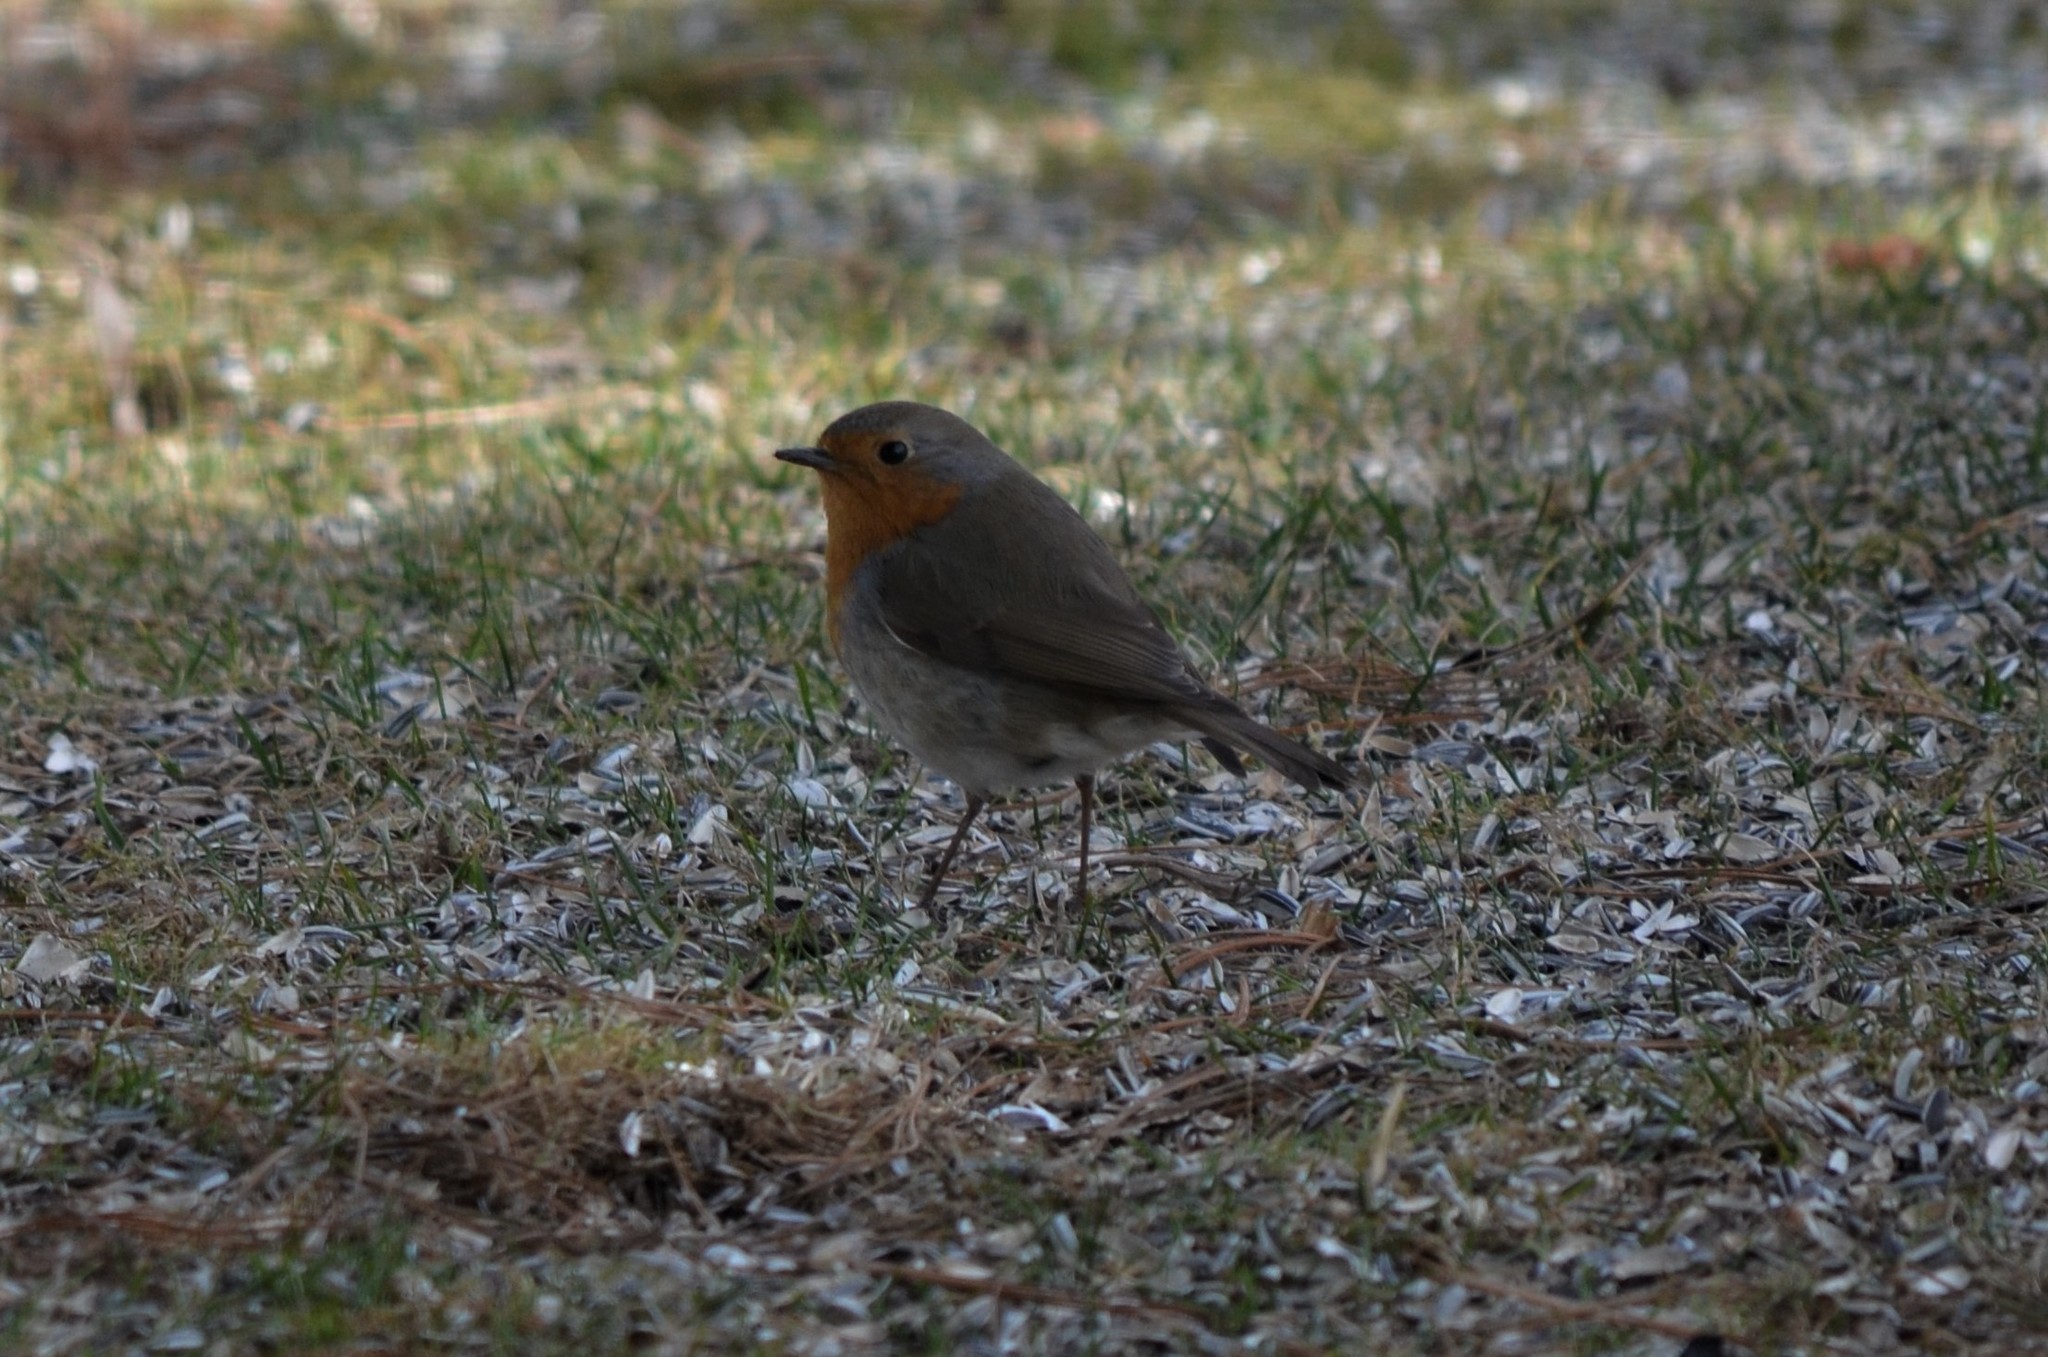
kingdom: Animalia
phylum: Chordata
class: Aves
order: Passeriformes
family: Muscicapidae
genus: Erithacus
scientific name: Erithacus rubecula
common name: European robin
